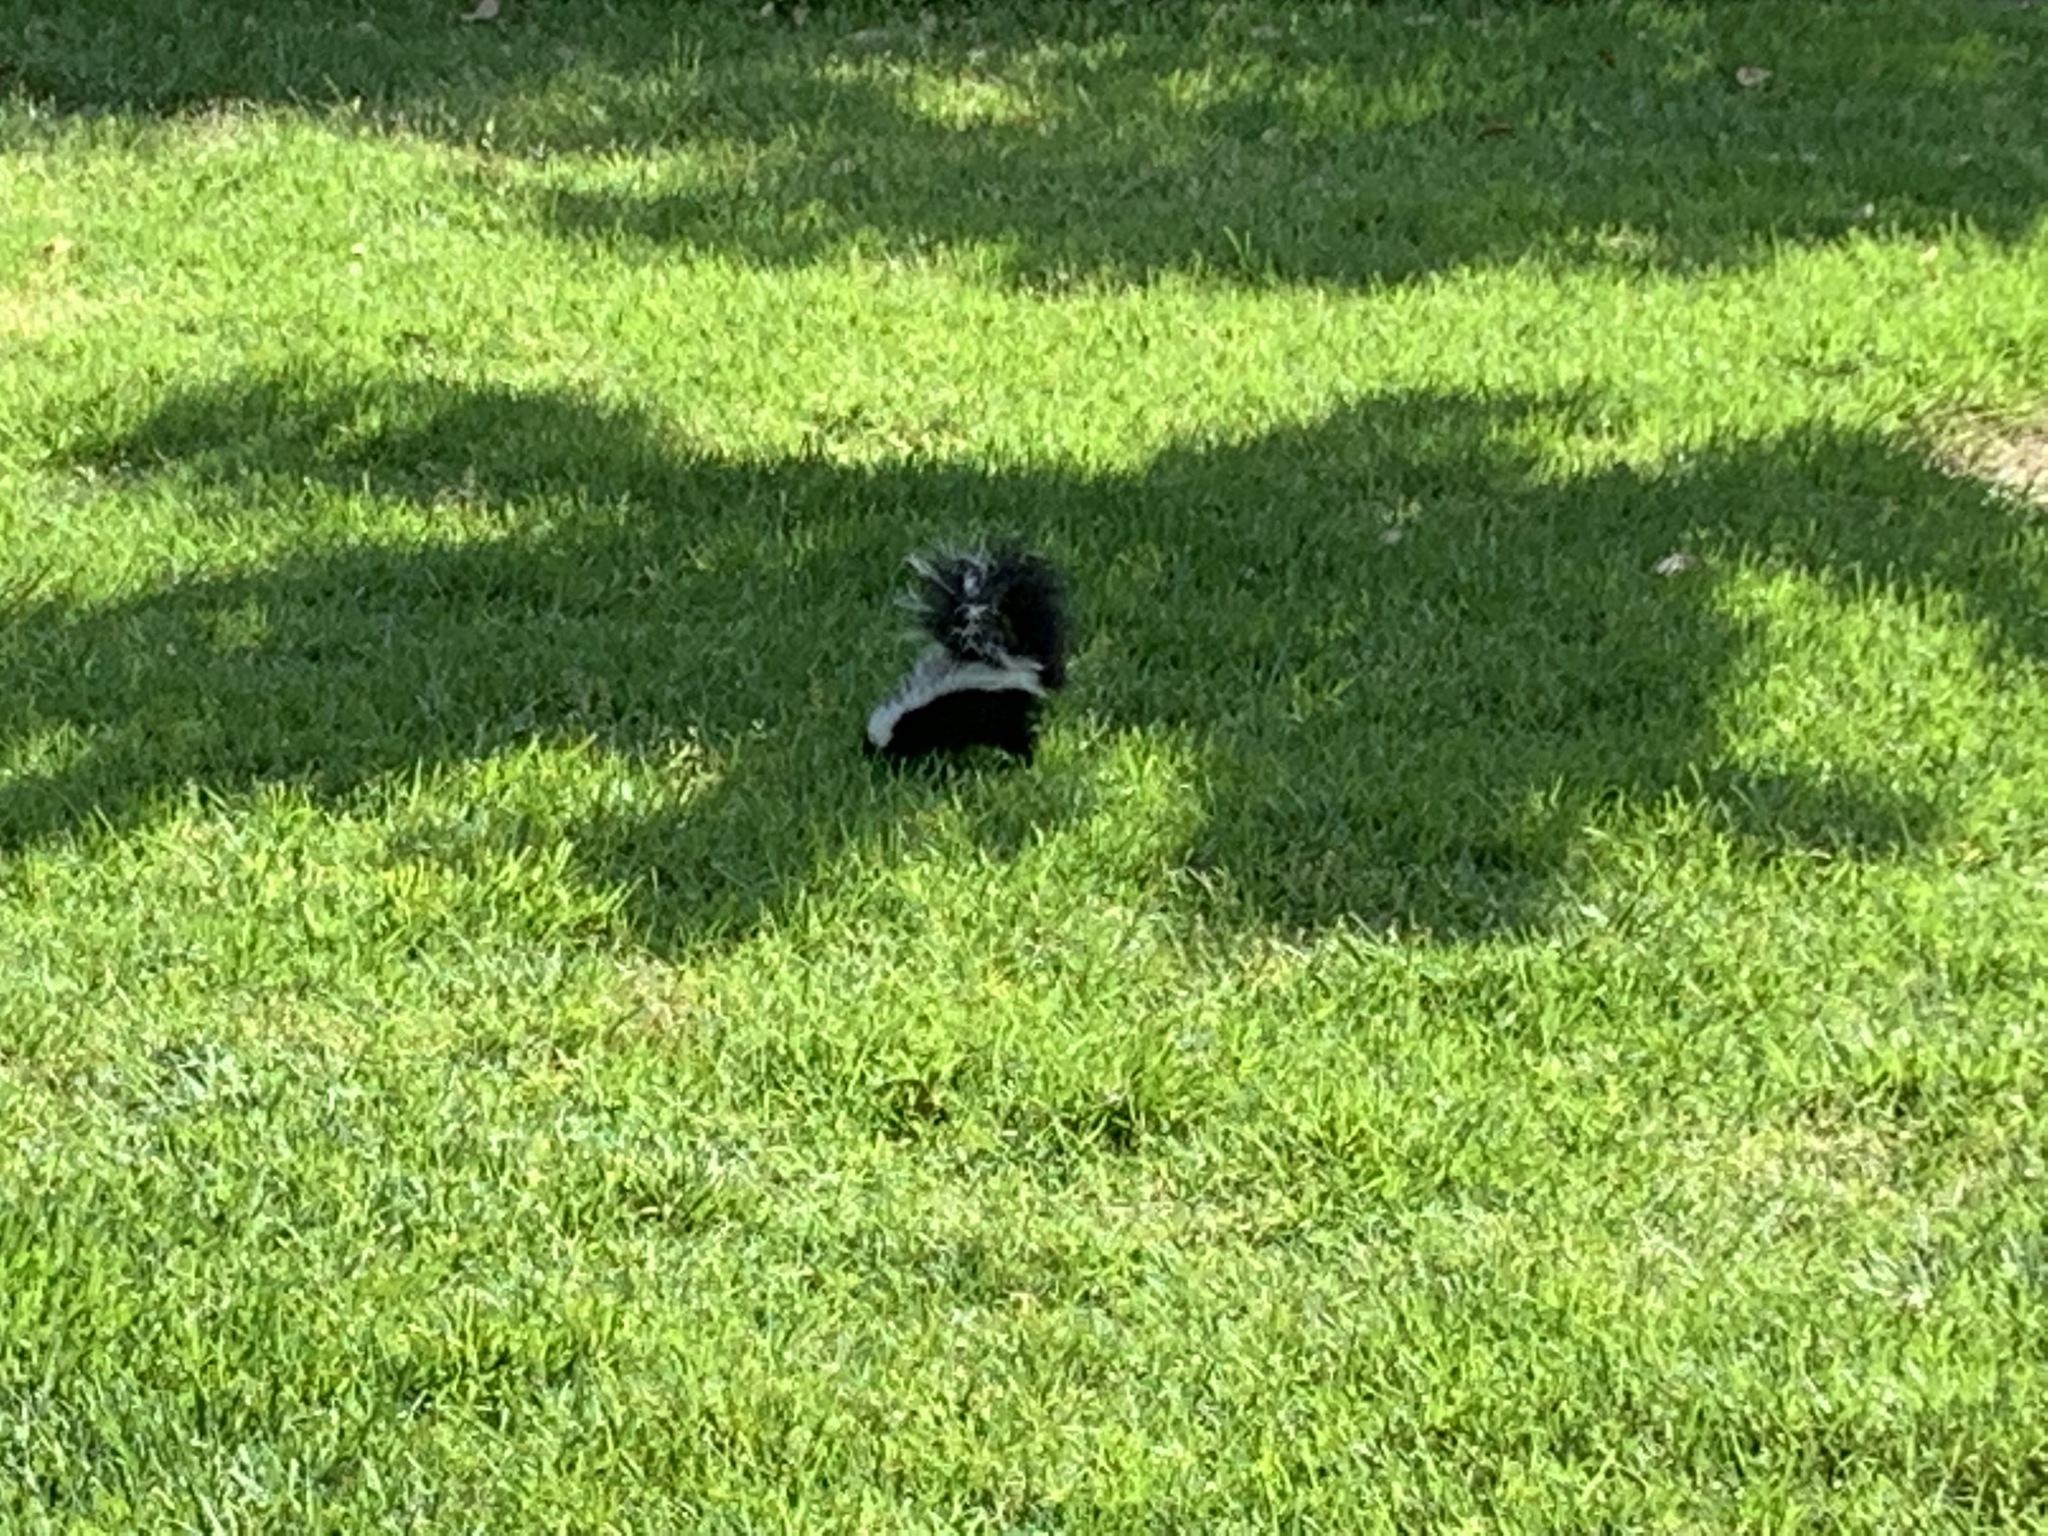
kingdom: Animalia
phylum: Chordata
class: Mammalia
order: Carnivora
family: Mephitidae
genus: Mephitis
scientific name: Mephitis mephitis
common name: Striped skunk
